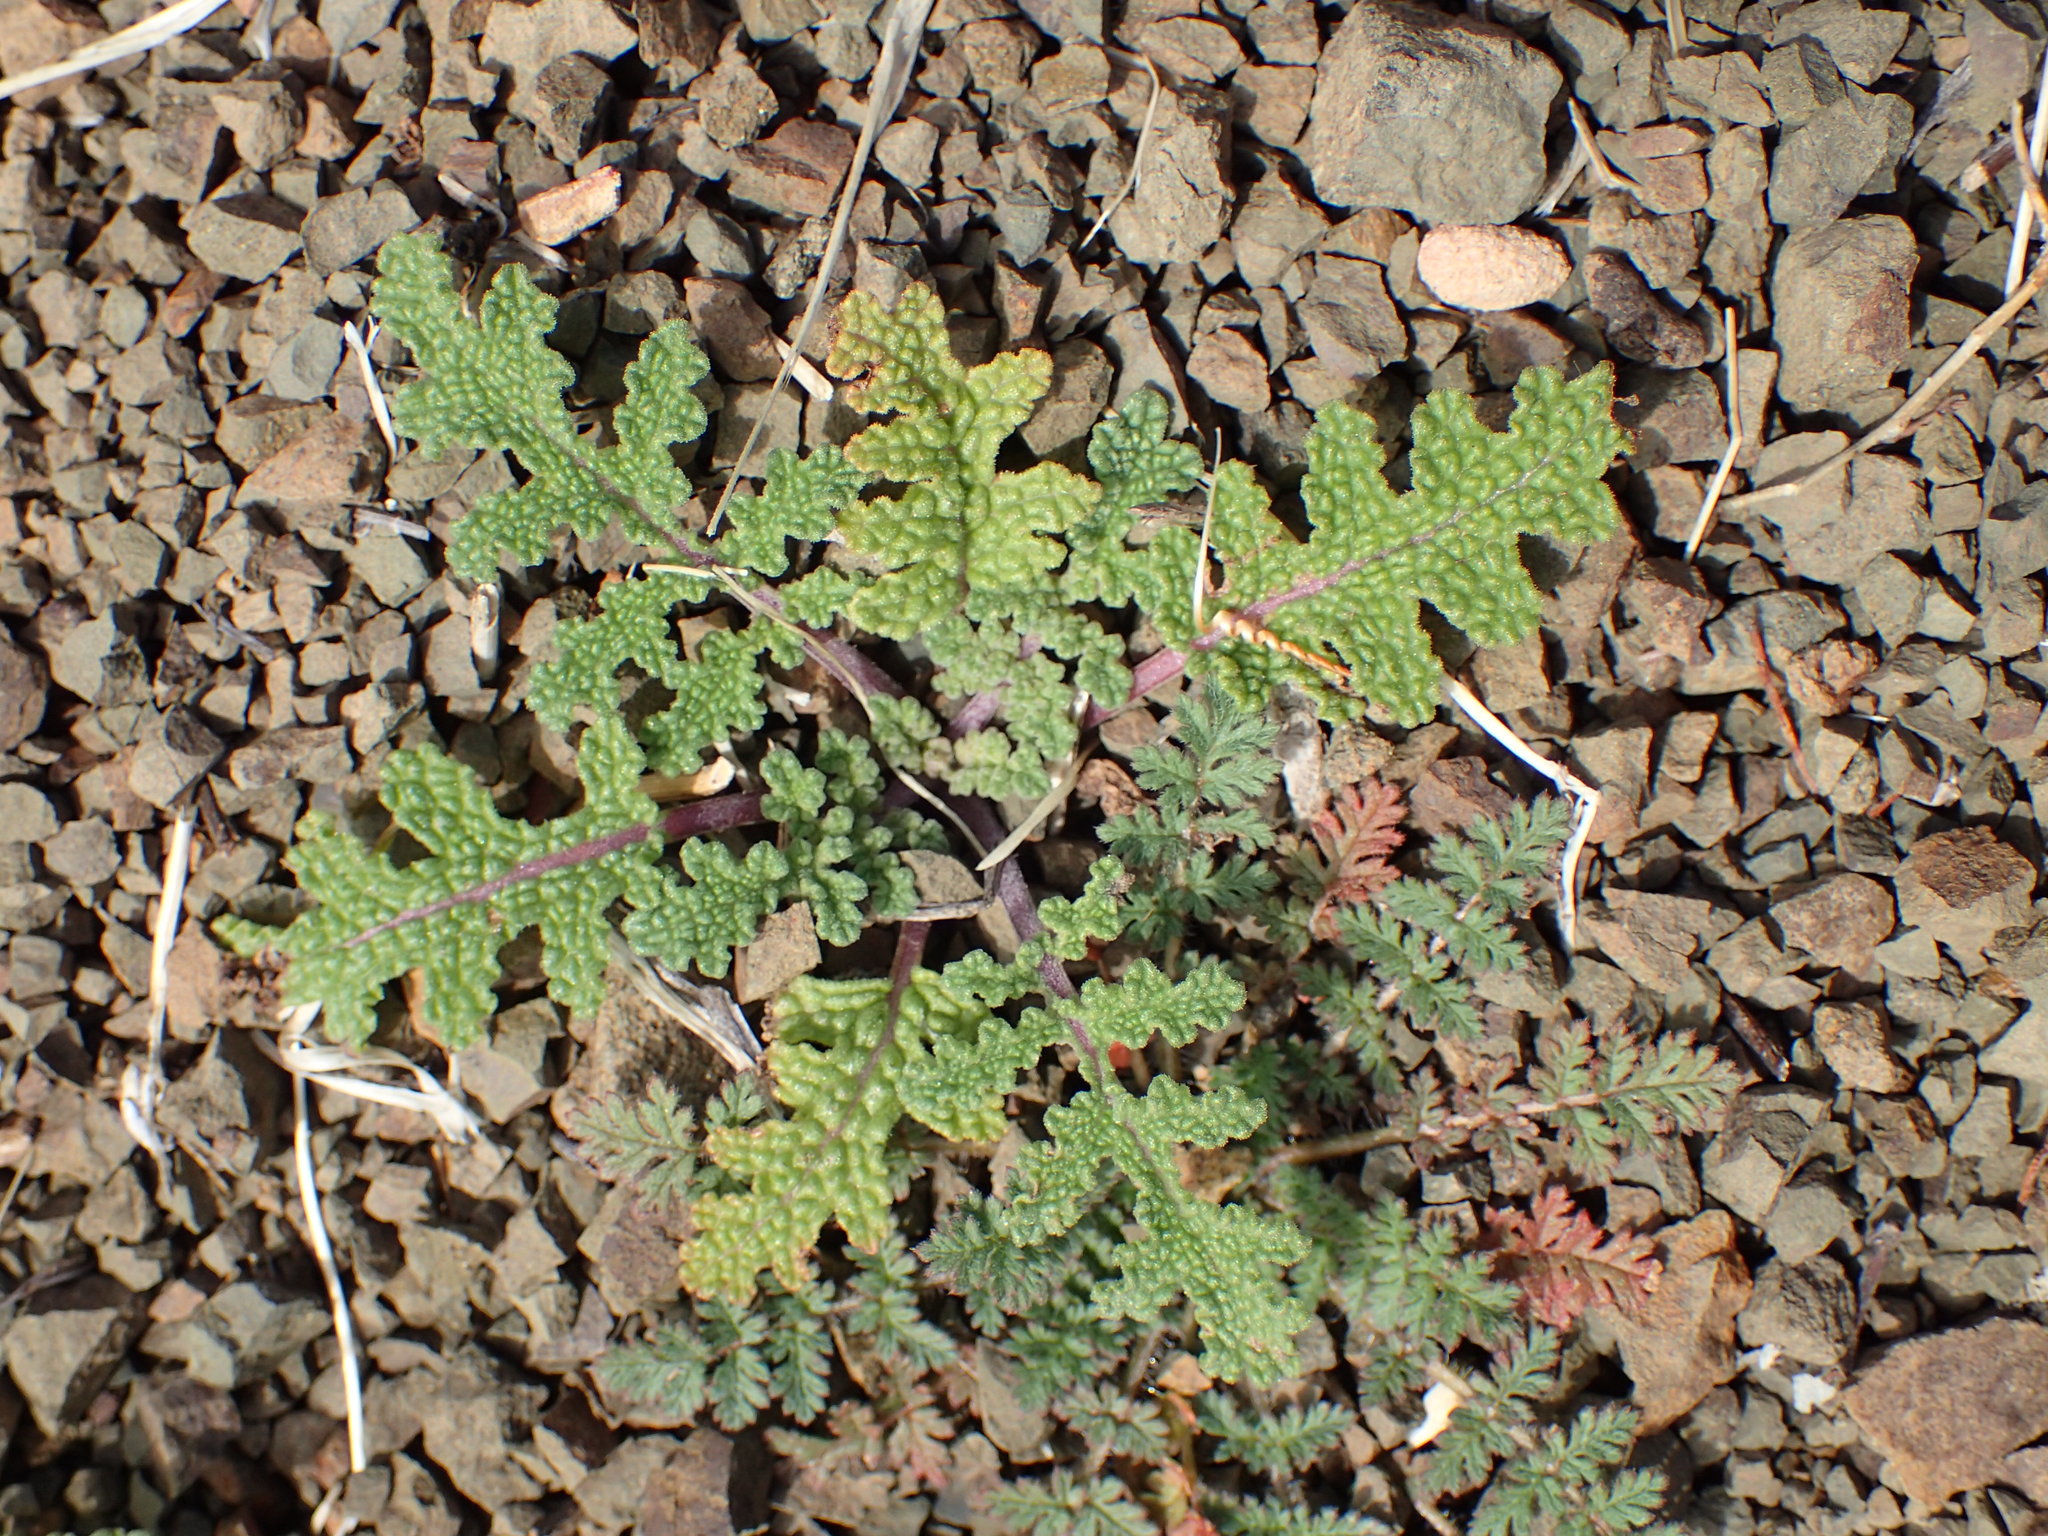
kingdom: Plantae
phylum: Tracheophyta
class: Magnoliopsida
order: Lamiales
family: Lamiaceae
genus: Salvia
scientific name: Salvia columbariae
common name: Chia
